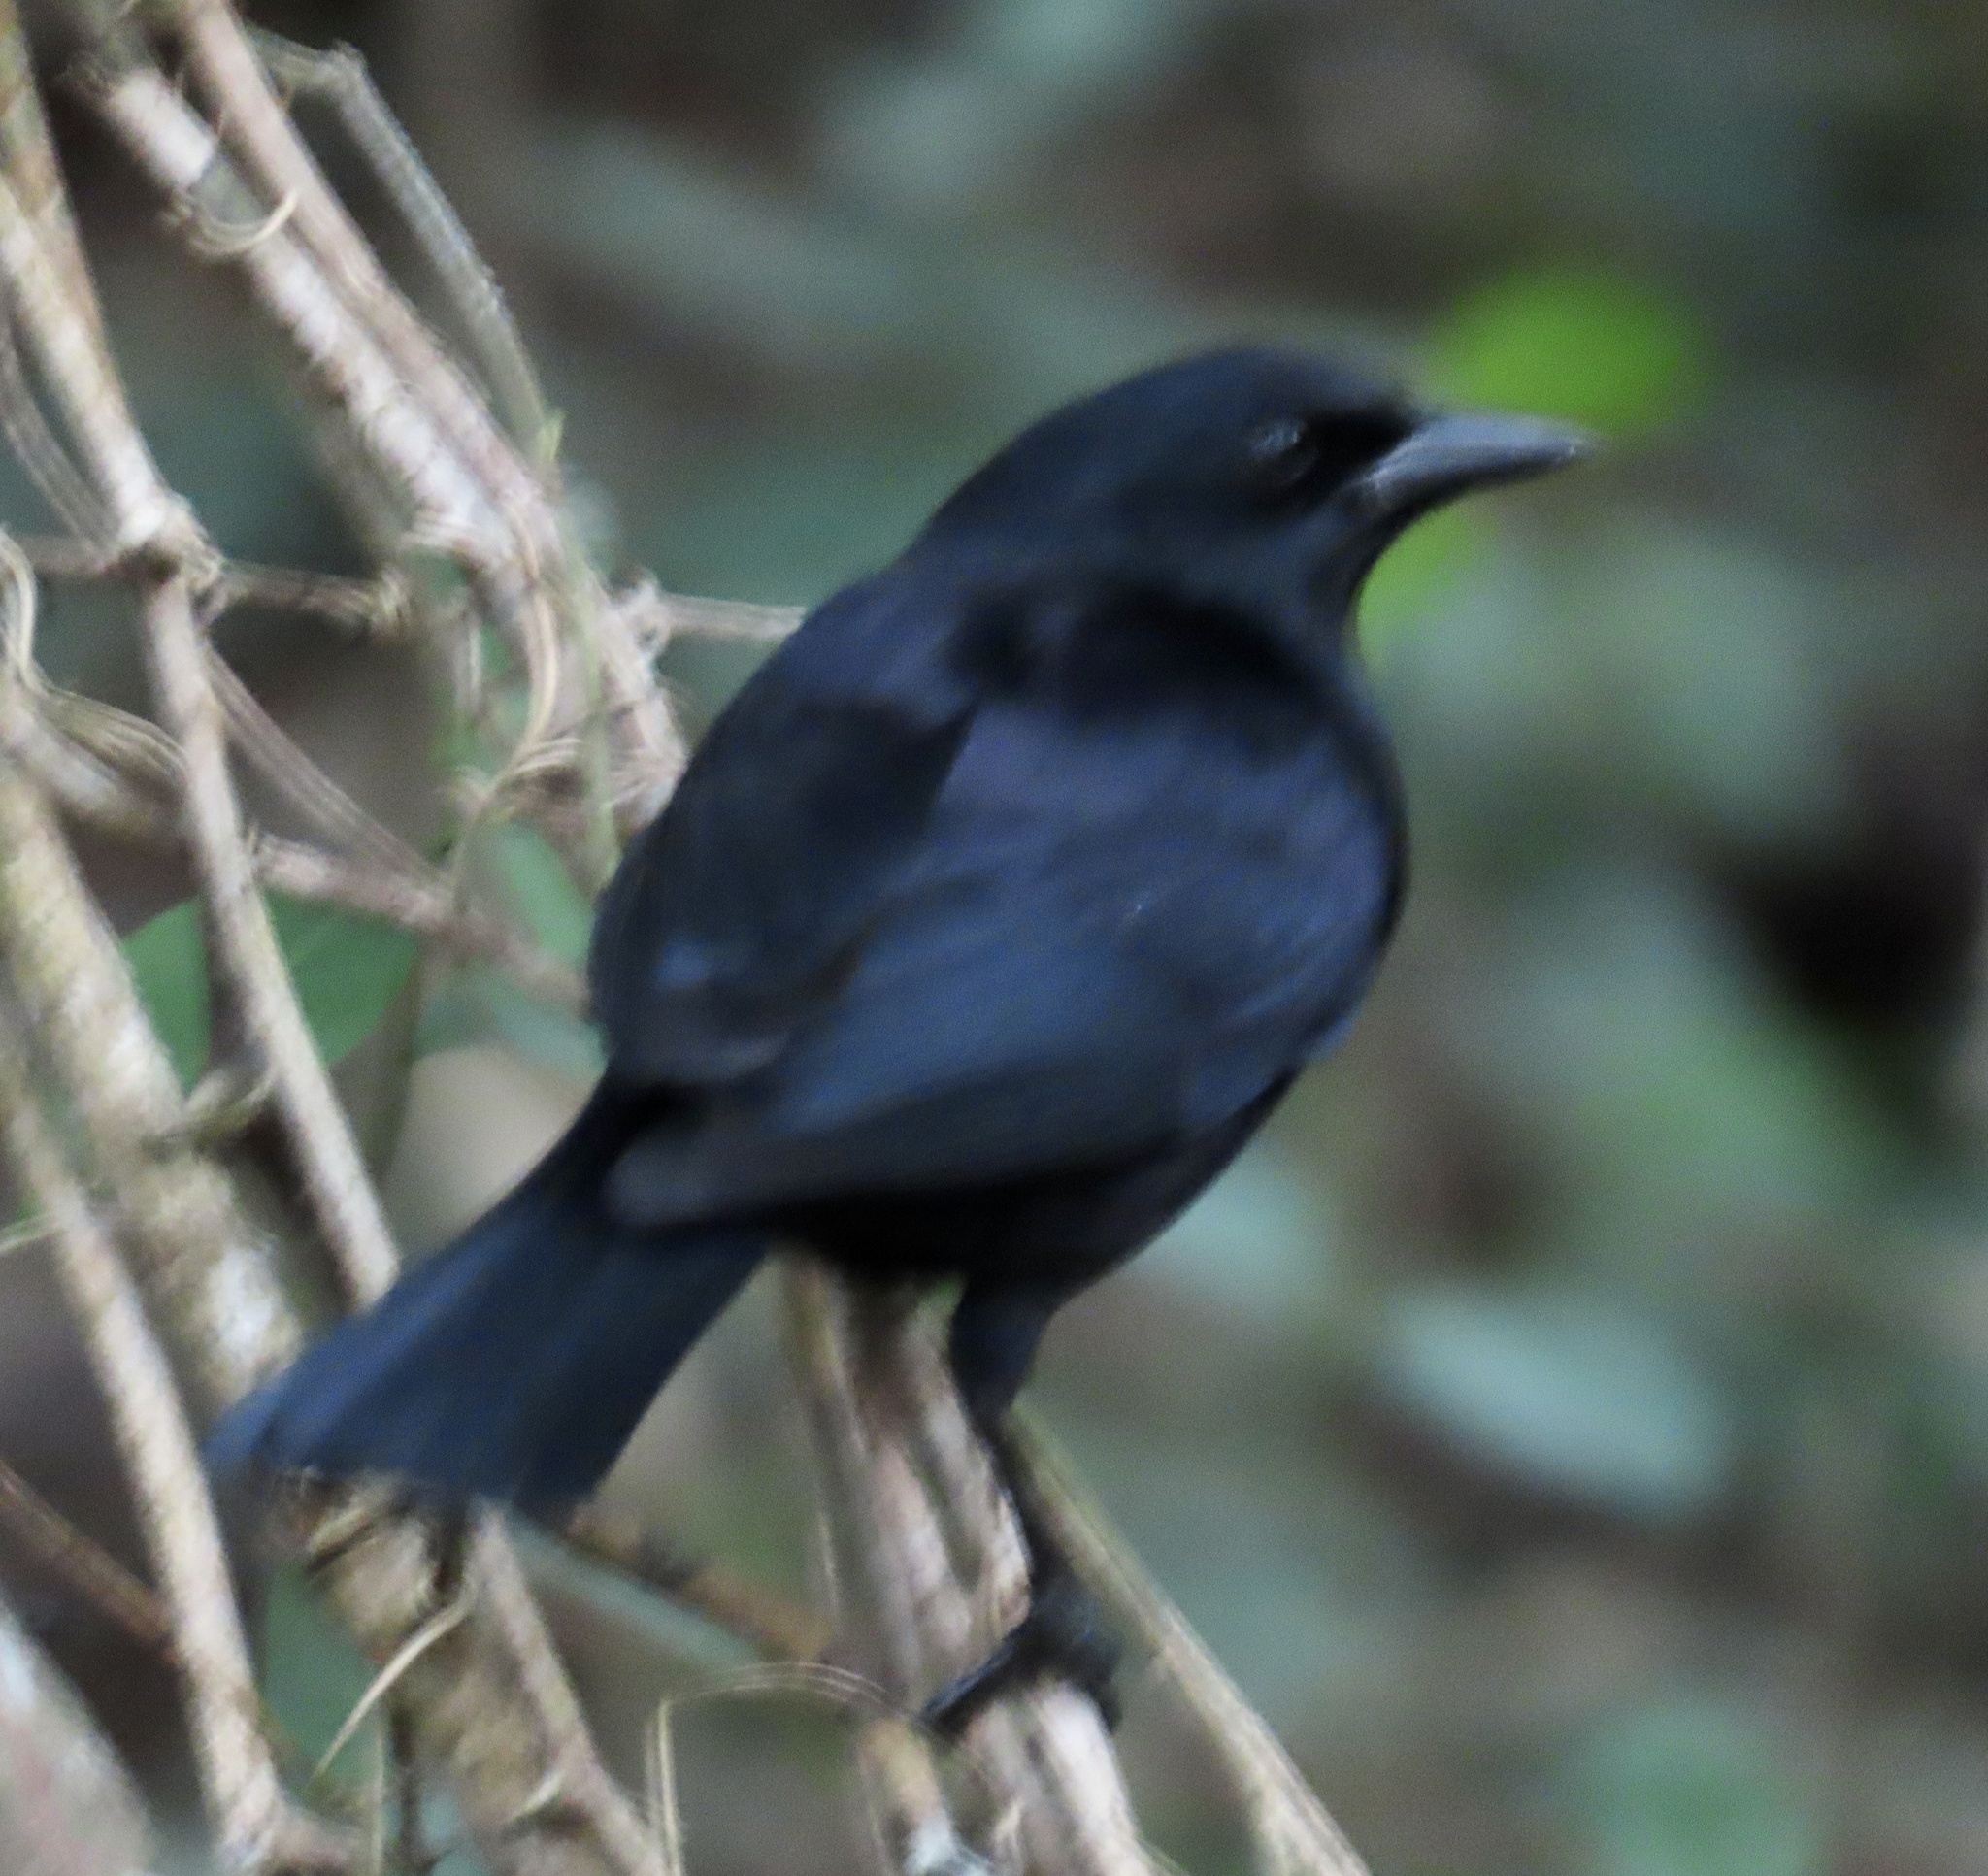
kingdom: Animalia
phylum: Chordata
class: Aves
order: Passeriformes
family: Icteridae
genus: Dives
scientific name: Dives atroviolaceus
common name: Cuban blackbird
